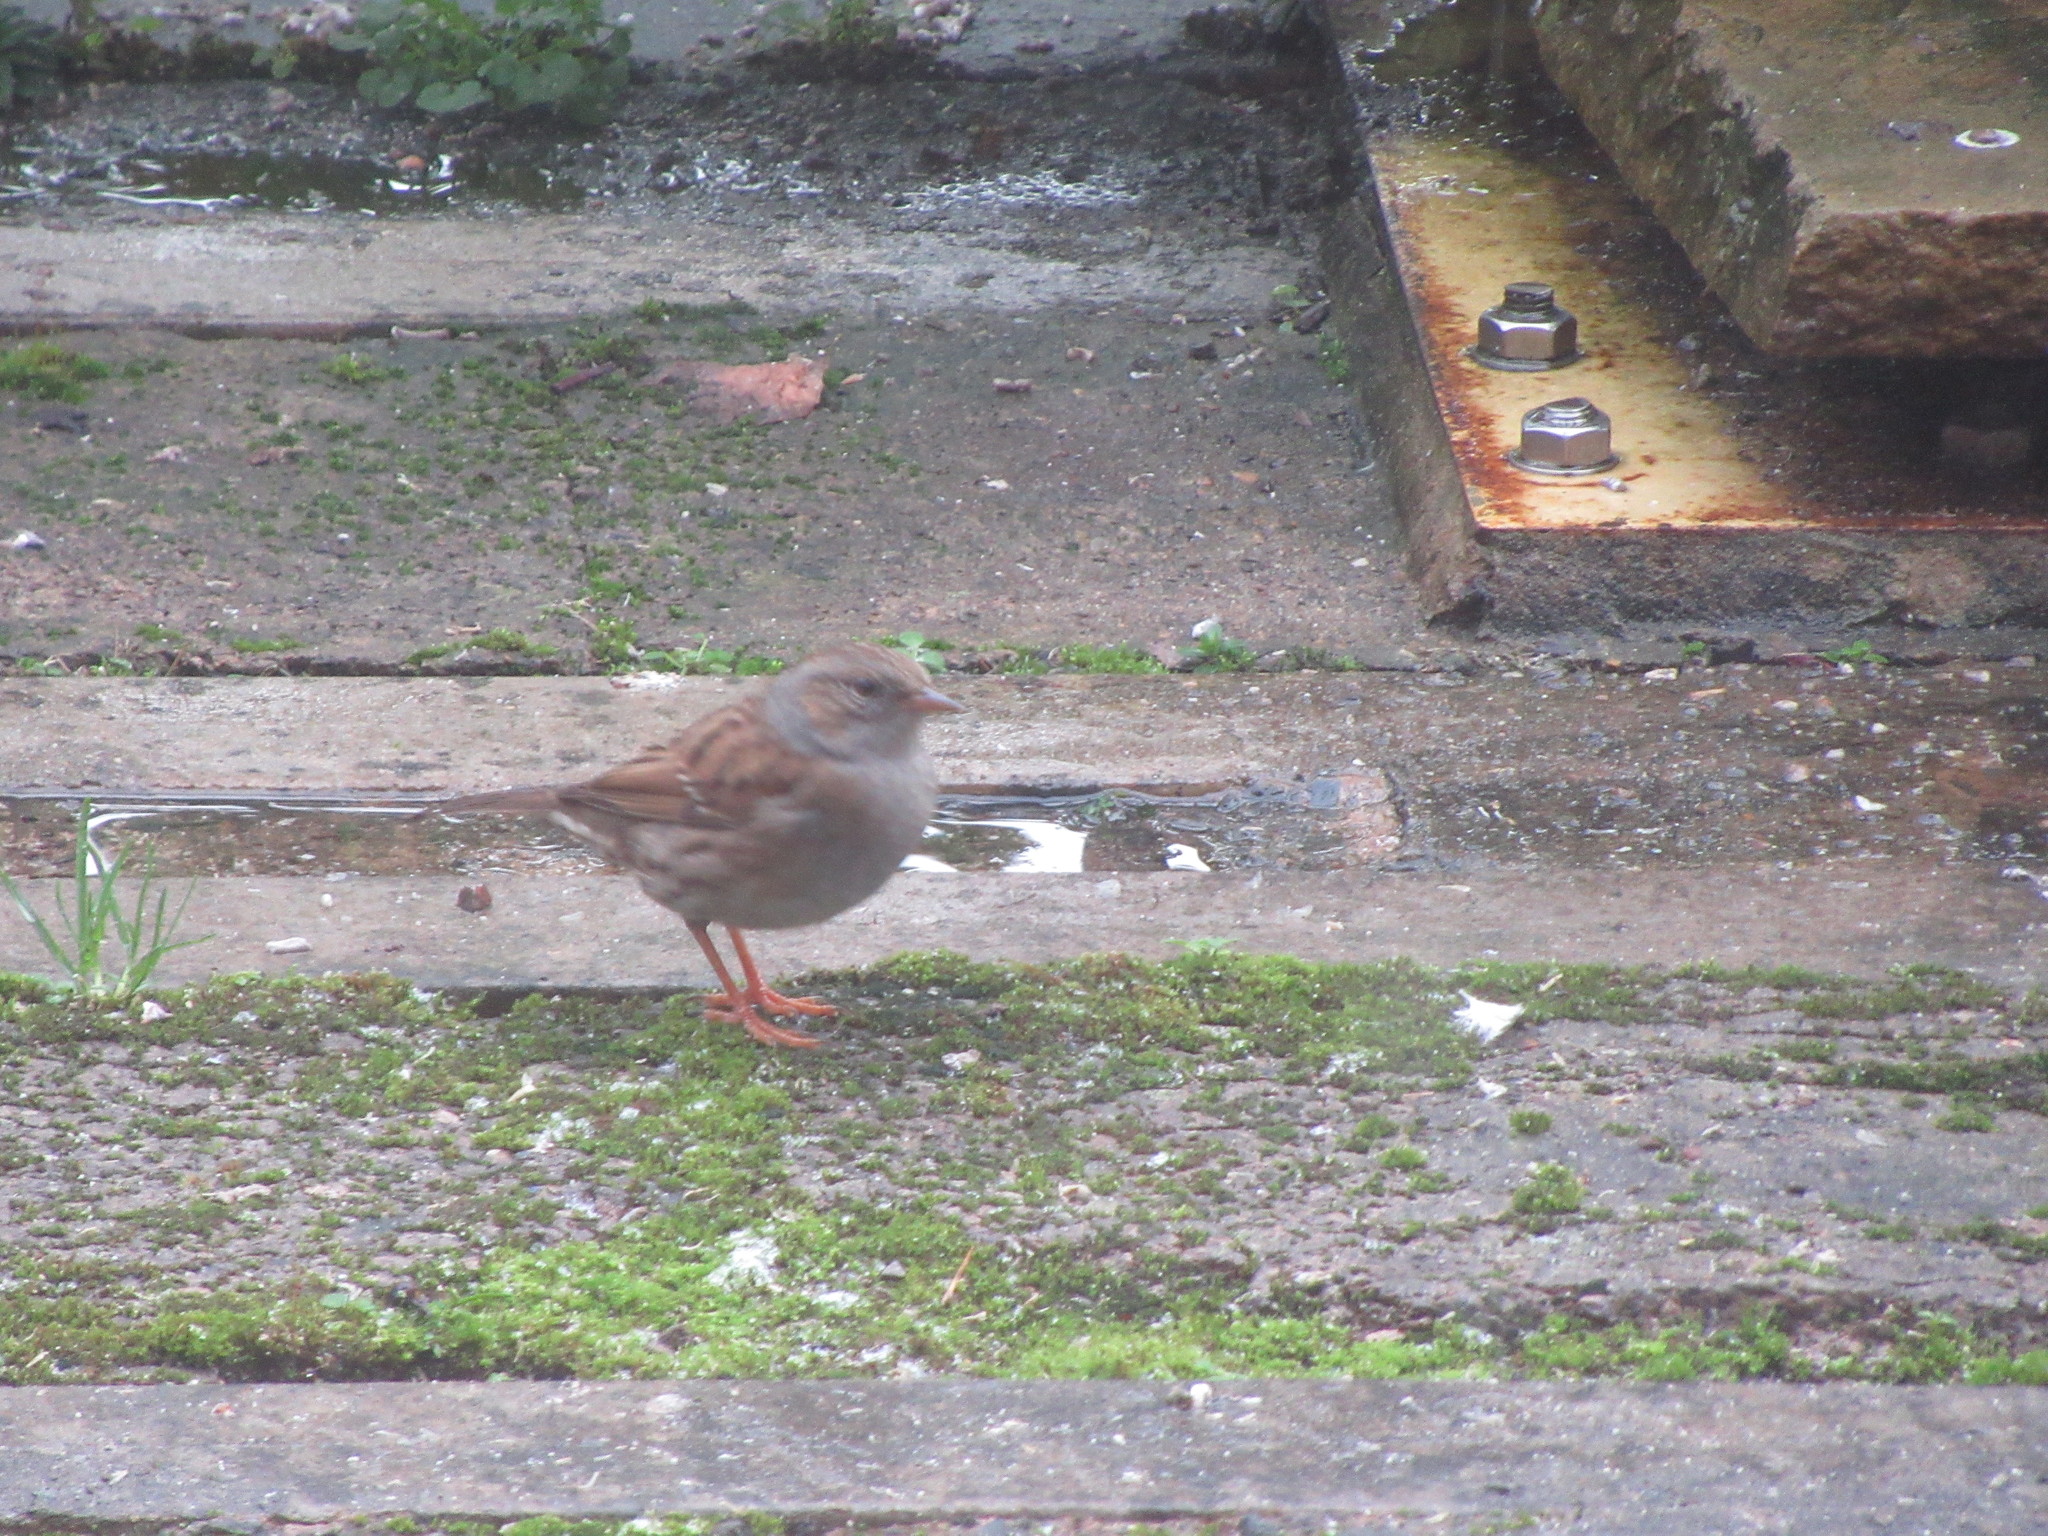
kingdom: Animalia
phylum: Chordata
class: Aves
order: Passeriformes
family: Prunellidae
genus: Prunella
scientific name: Prunella modularis
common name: Dunnock
